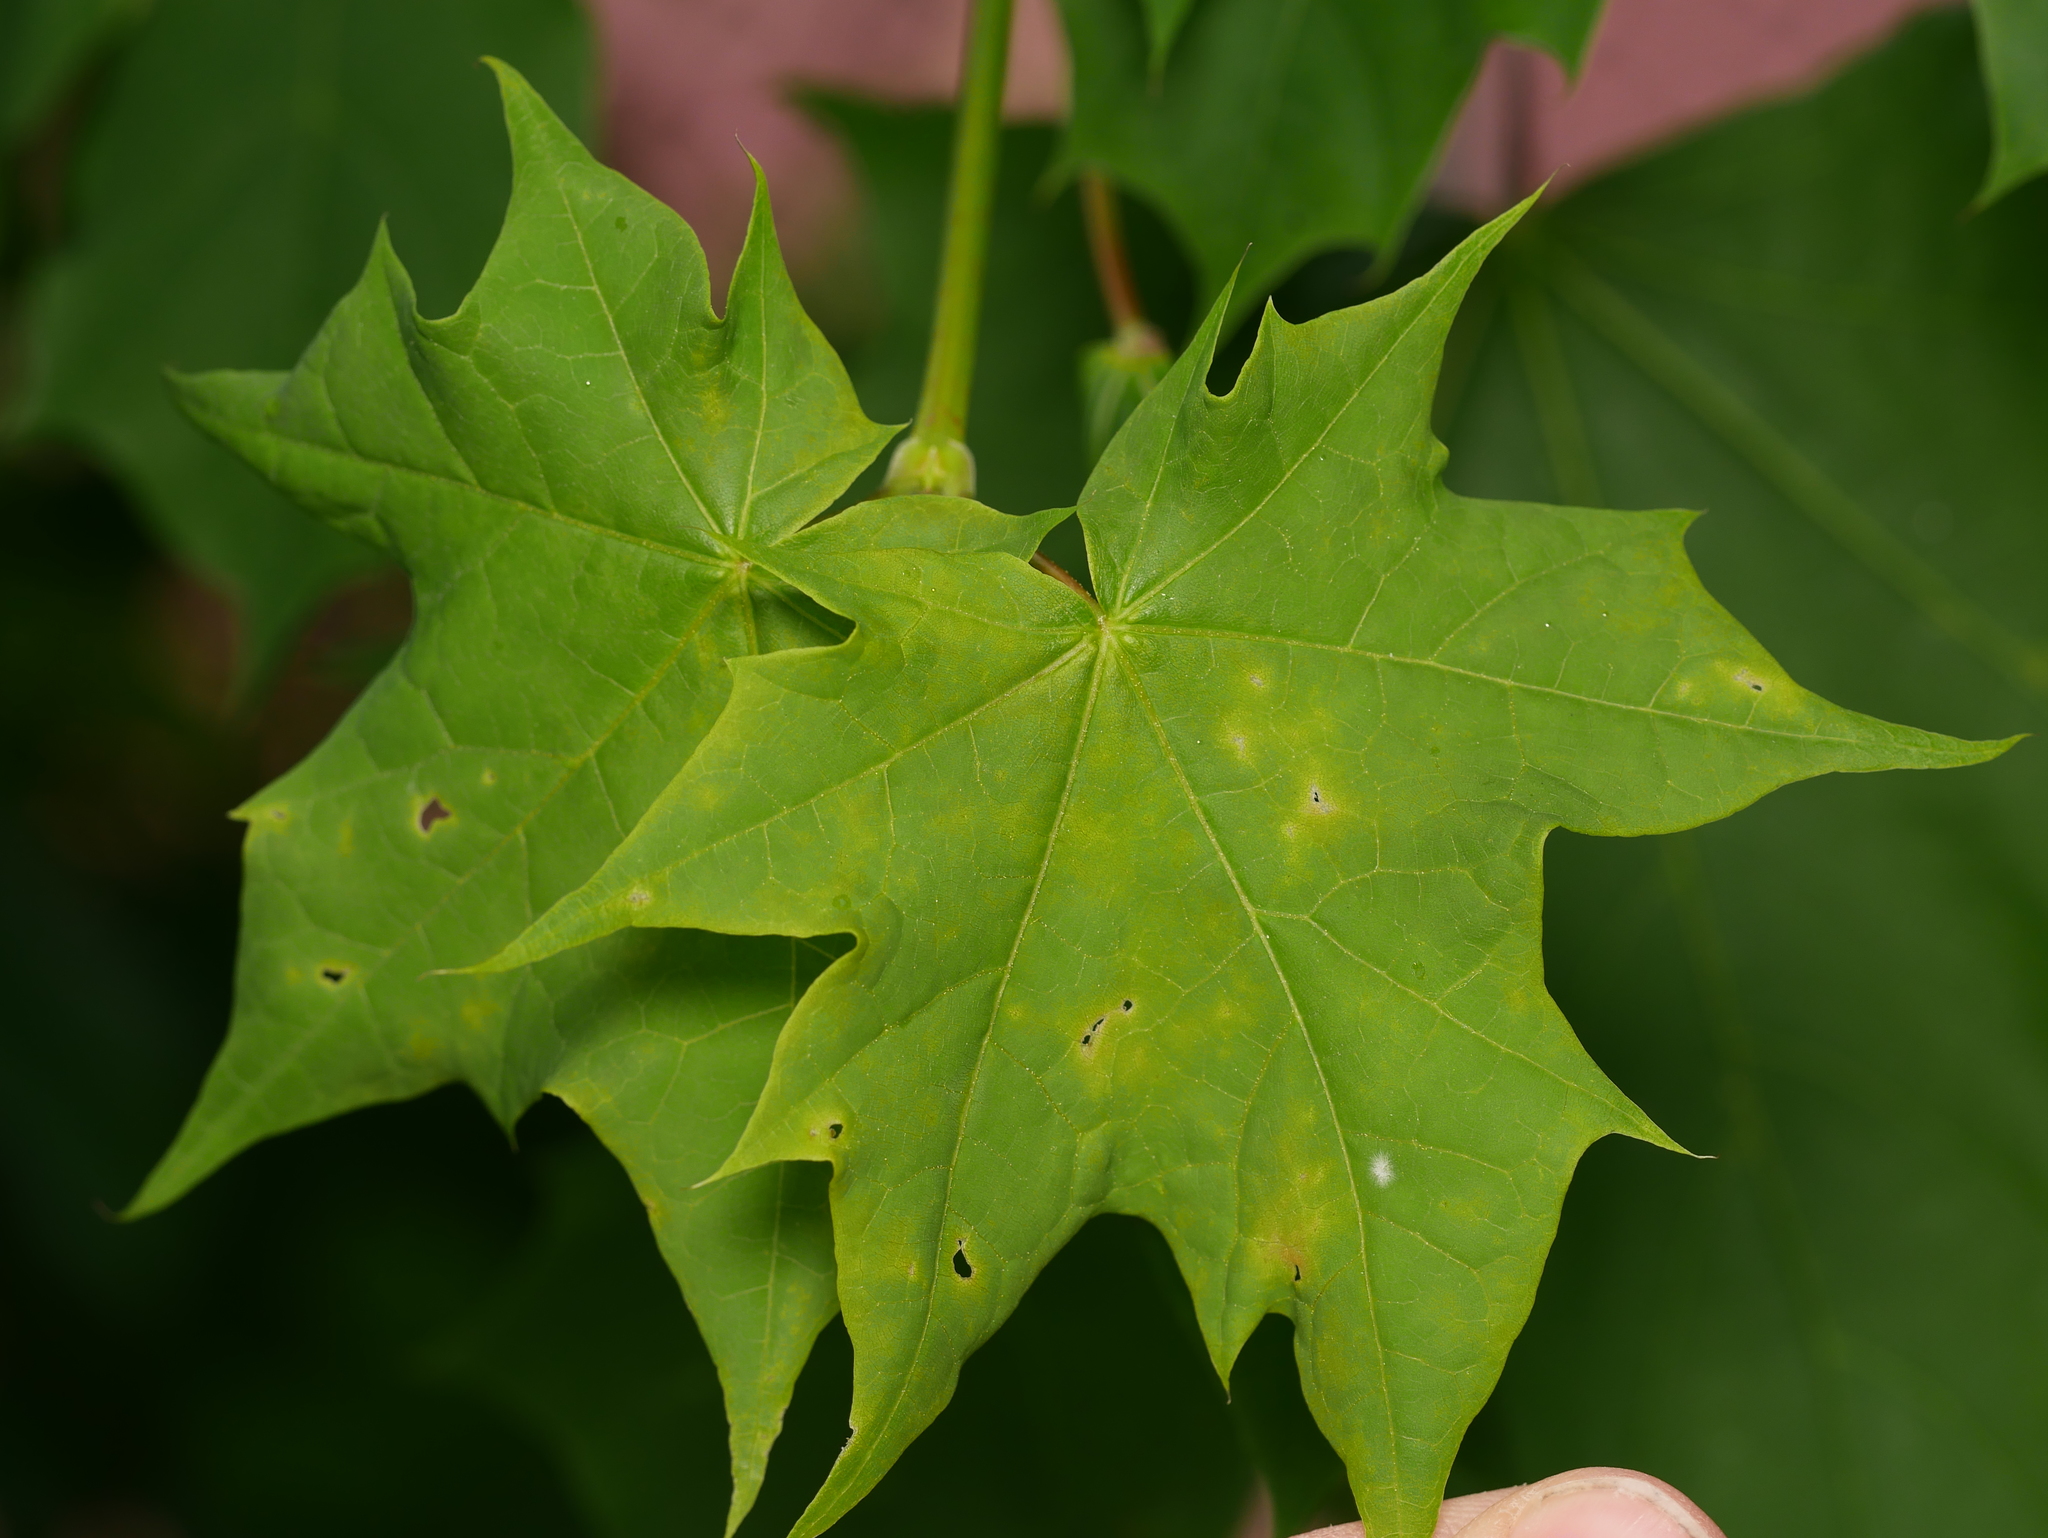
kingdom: Plantae
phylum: Tracheophyta
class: Magnoliopsida
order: Sapindales
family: Sapindaceae
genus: Acer
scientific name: Acer platanoides
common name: Norway maple
